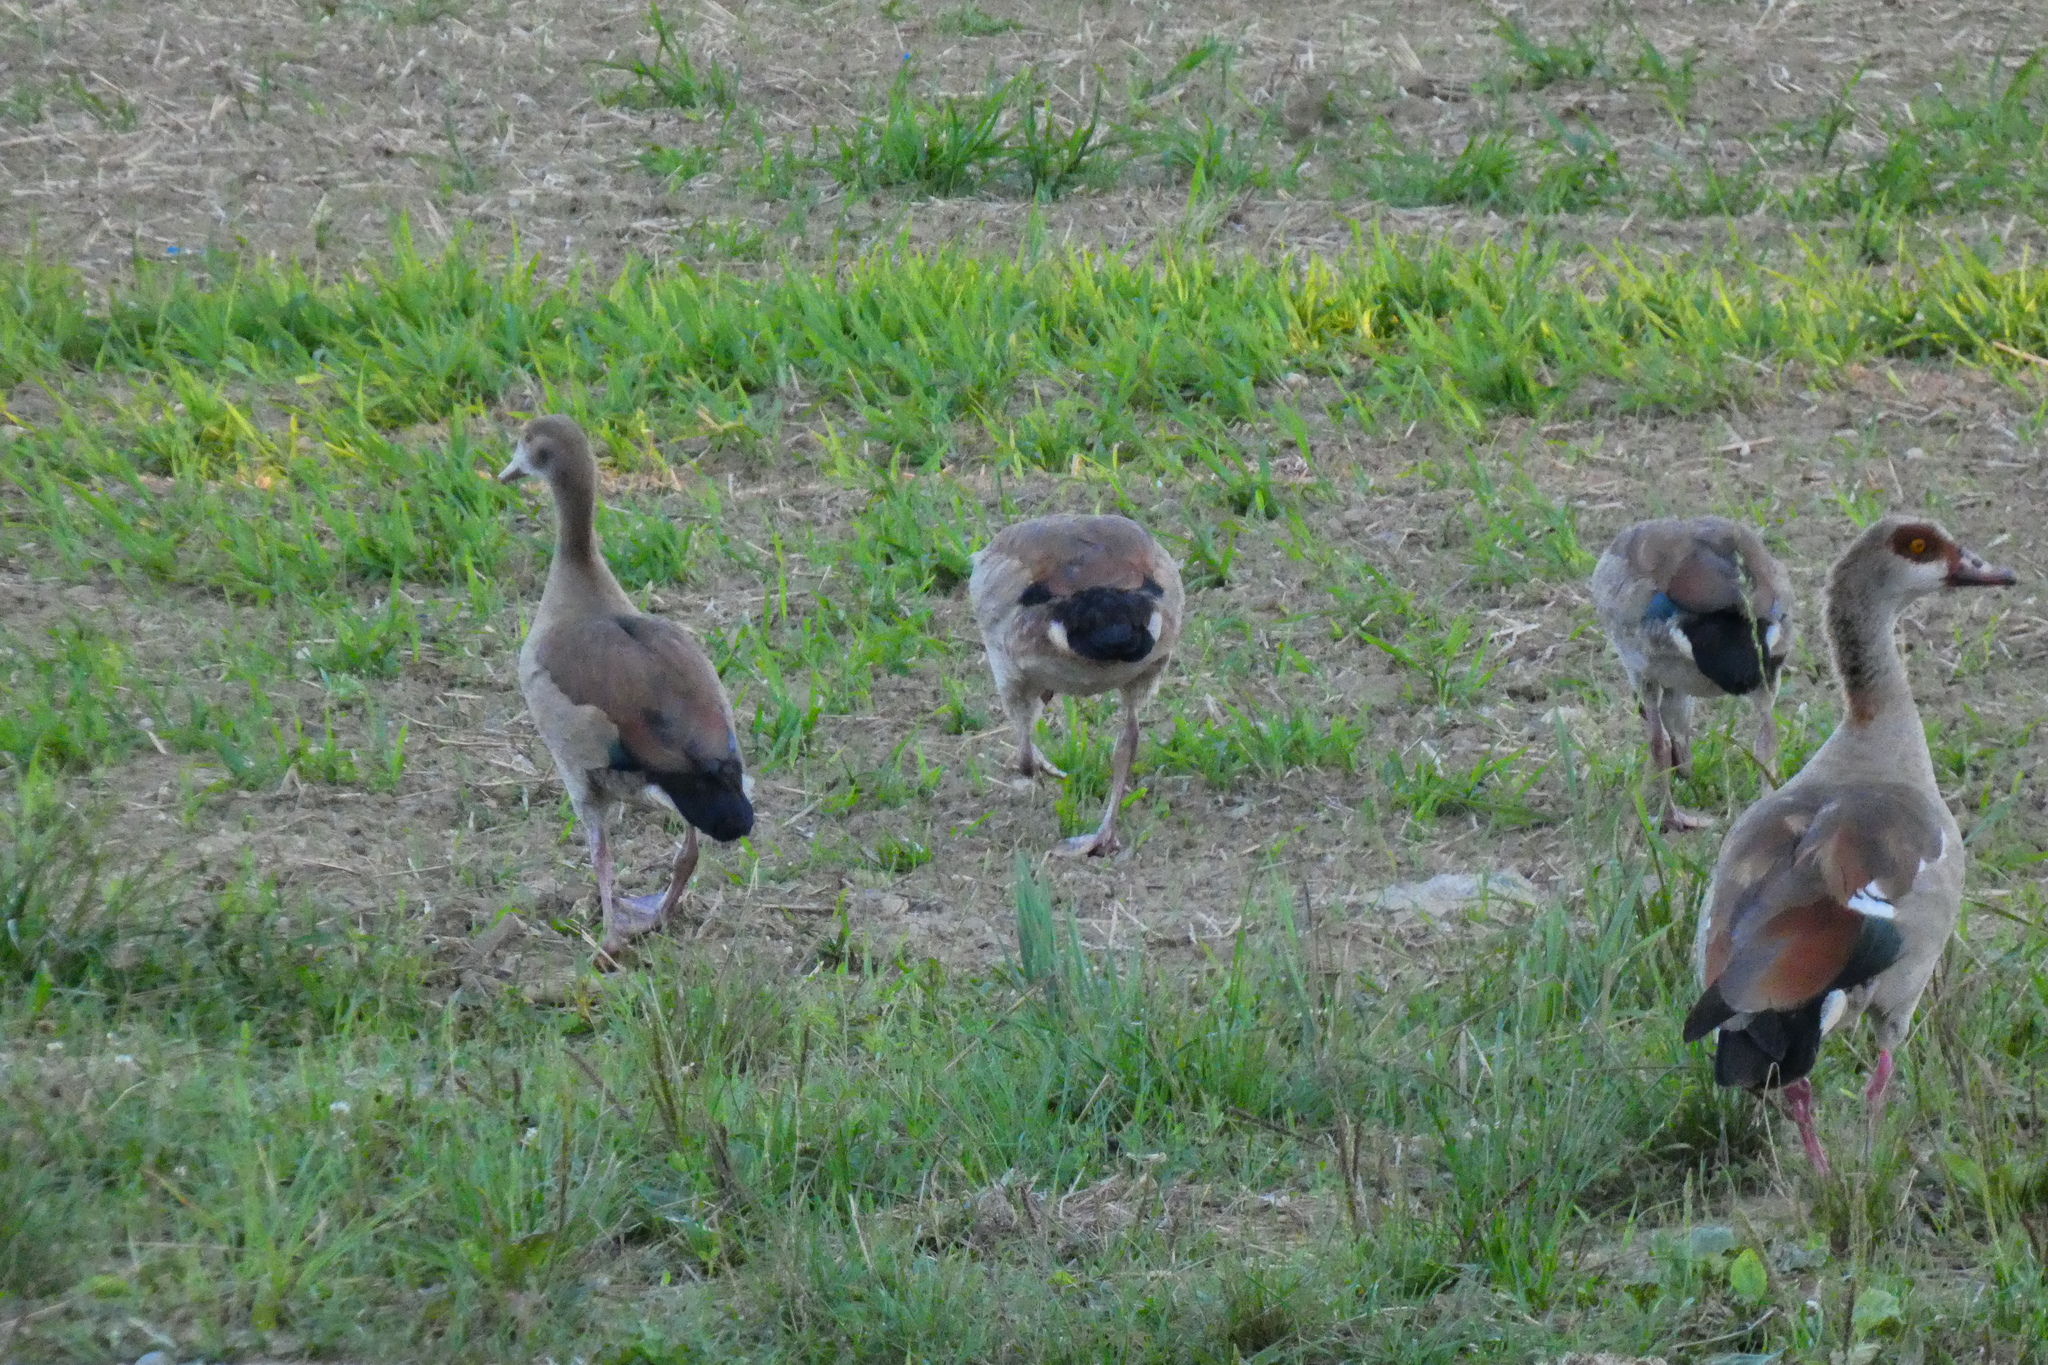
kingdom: Animalia
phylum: Chordata
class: Aves
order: Anseriformes
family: Anatidae
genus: Alopochen
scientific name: Alopochen aegyptiaca
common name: Egyptian goose
